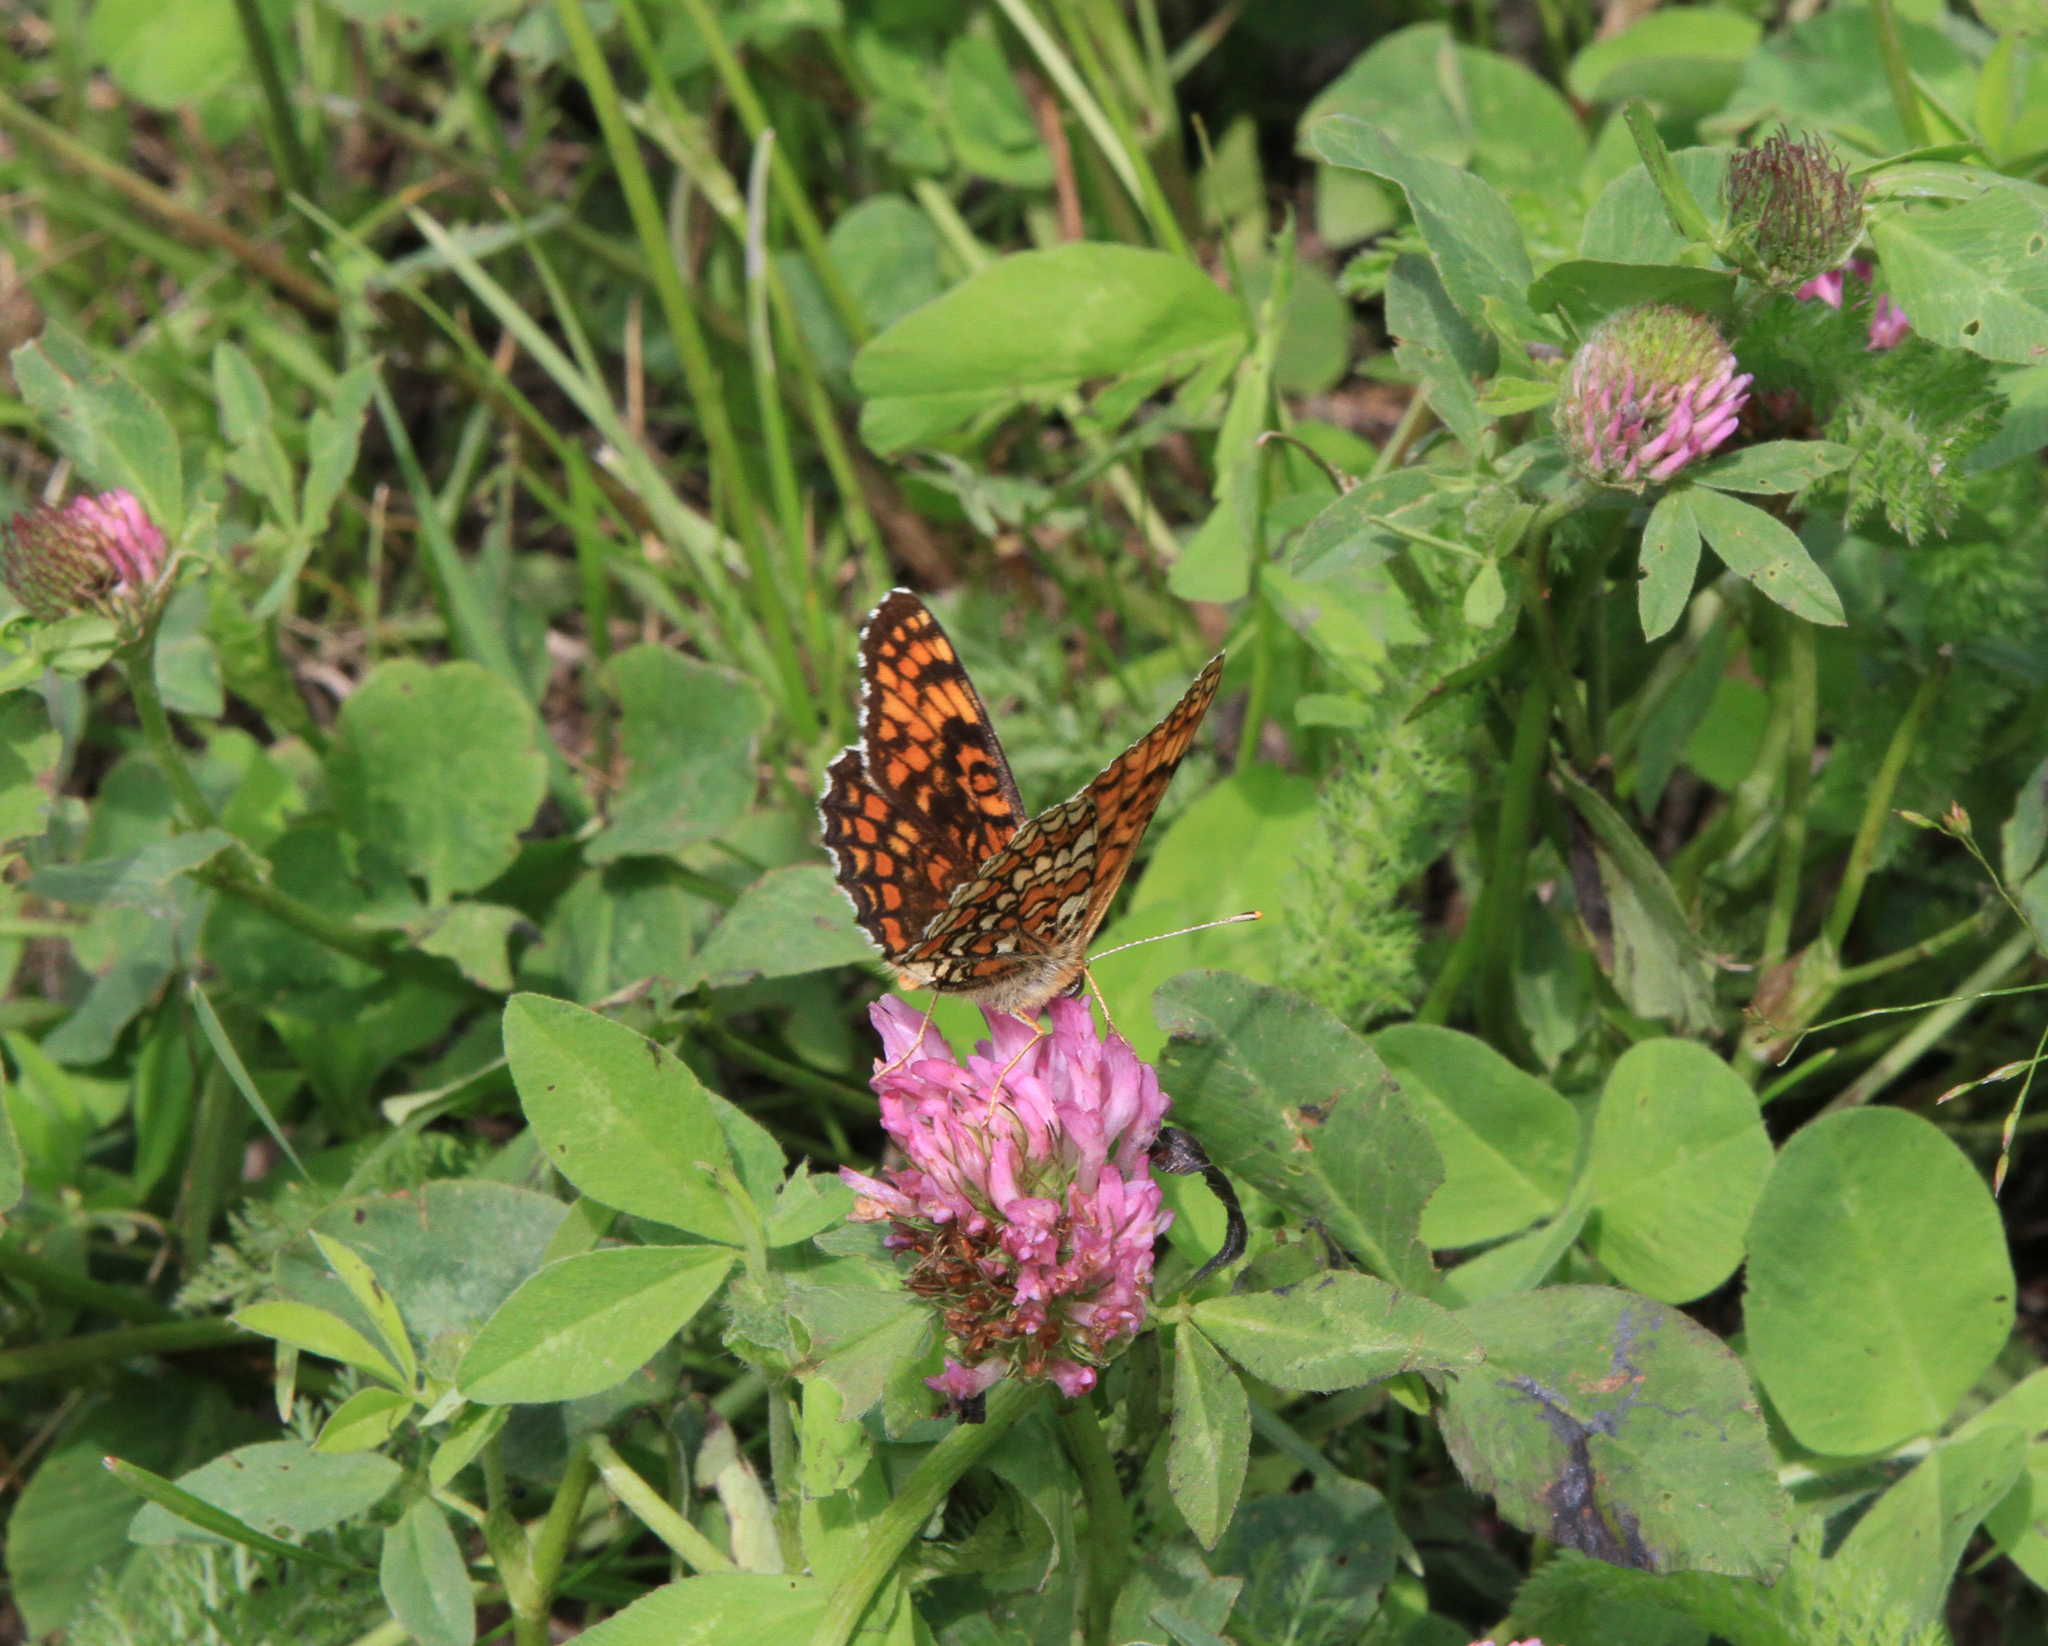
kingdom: Animalia
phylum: Arthropoda
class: Insecta
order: Lepidoptera
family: Nymphalidae
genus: Melitaea
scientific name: Melitaea phoebe
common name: Knapweed fritillary
